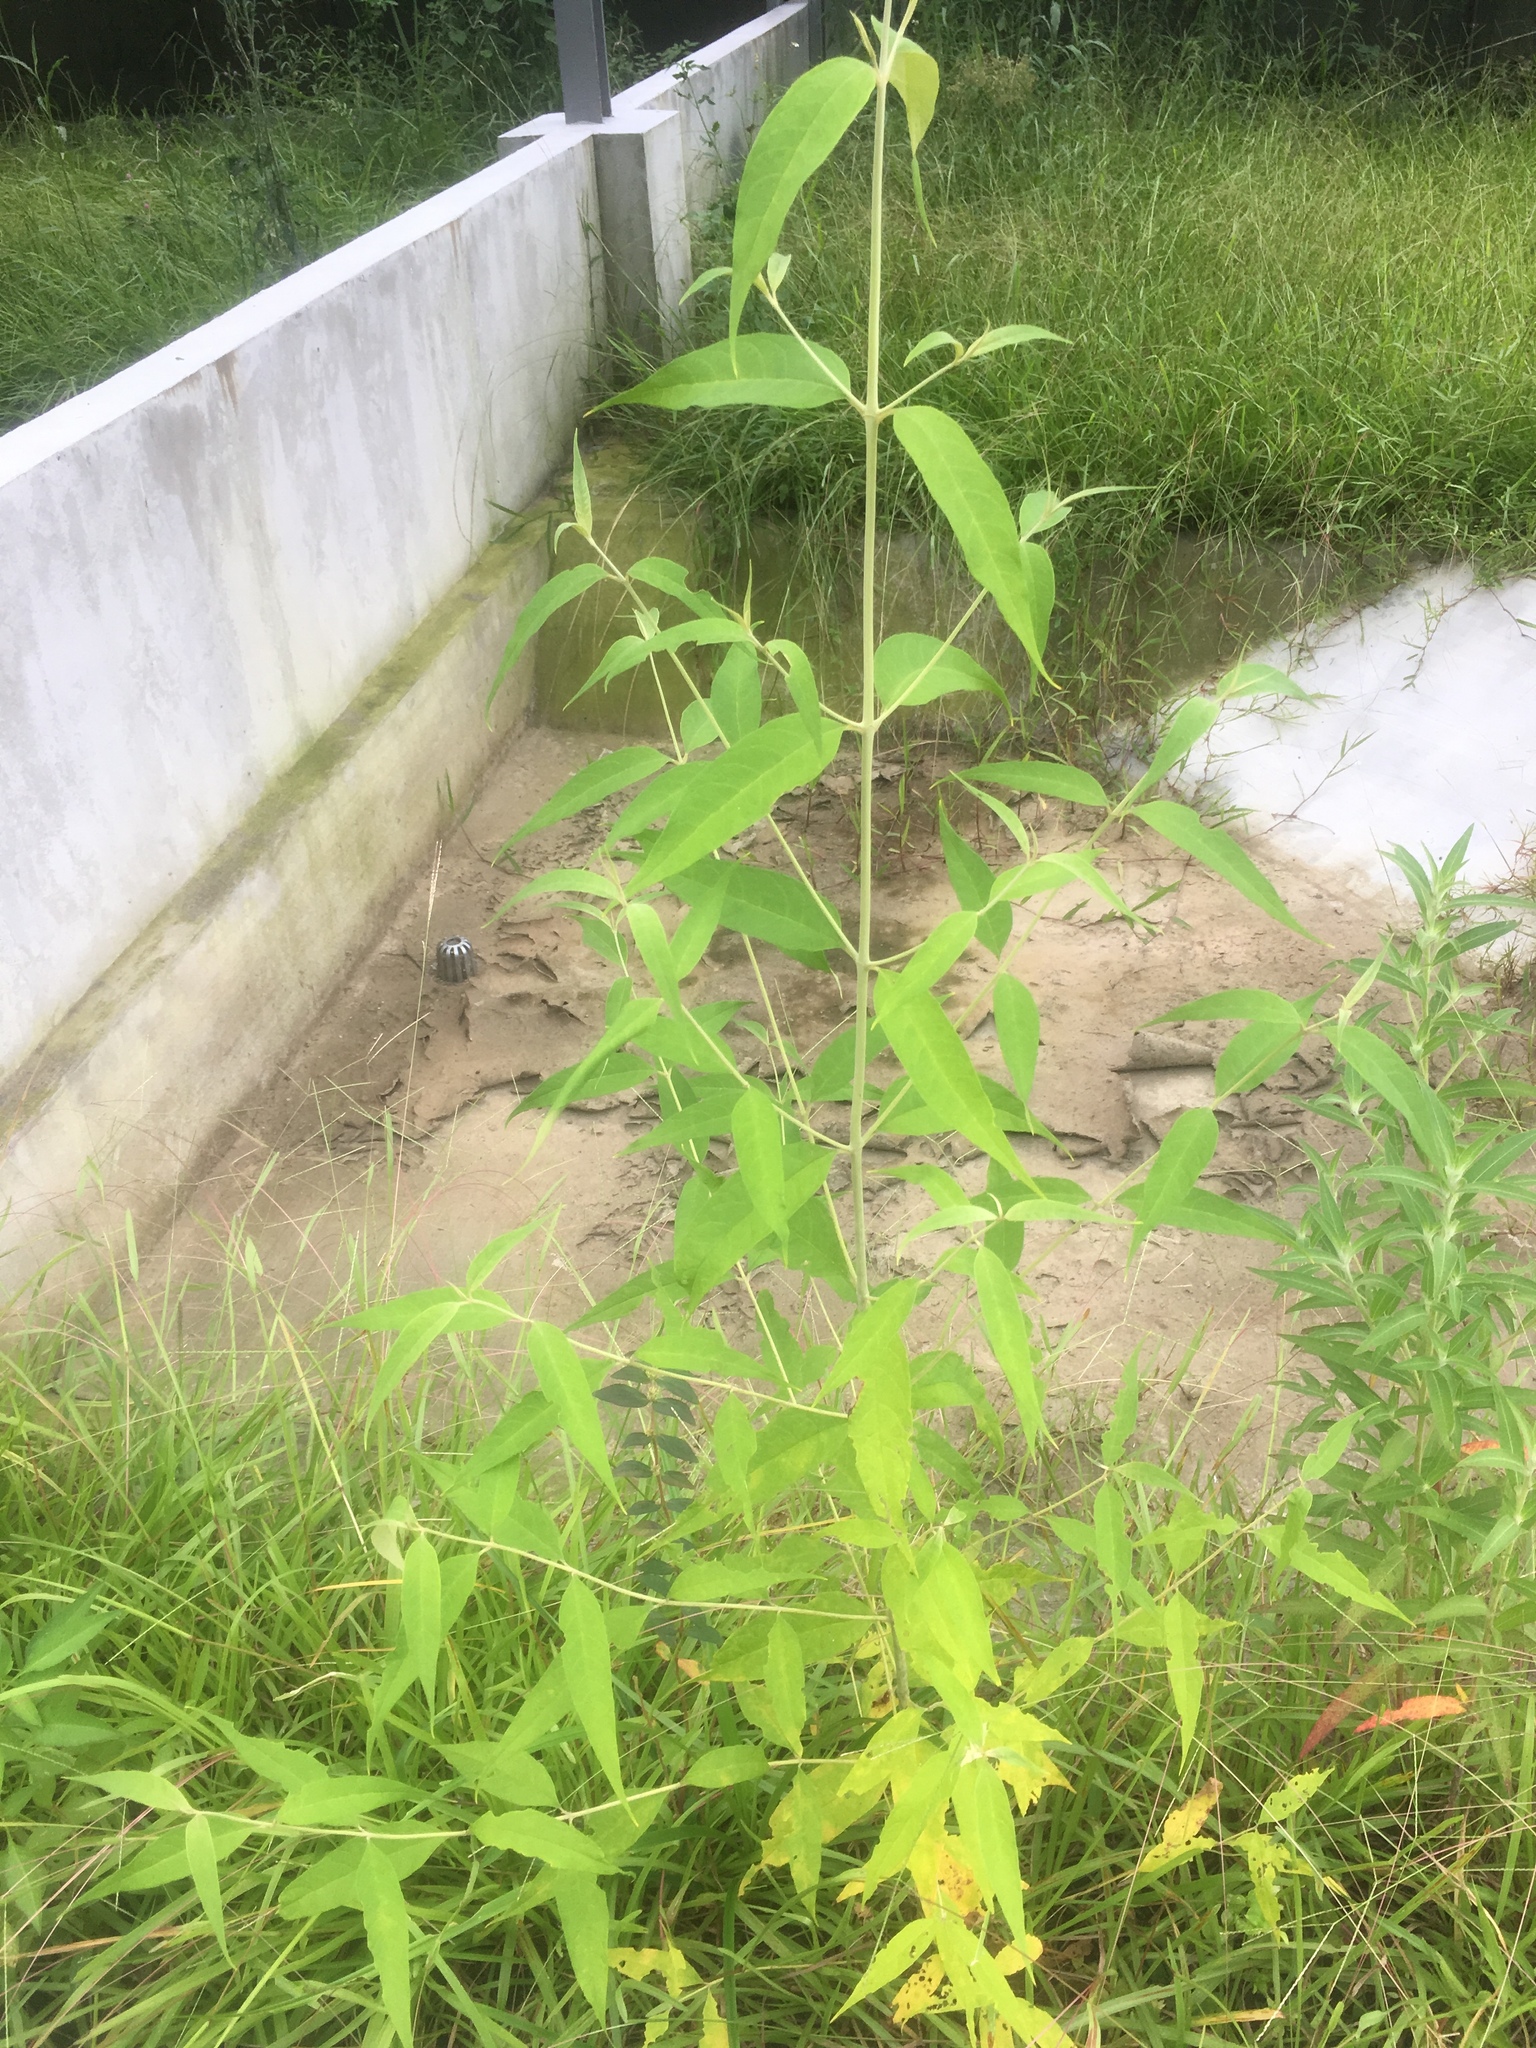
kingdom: Plantae
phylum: Tracheophyta
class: Magnoliopsida
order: Lamiales
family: Scrophulariaceae
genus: Buddleja
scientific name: Buddleja asiatica
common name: Dog tail
